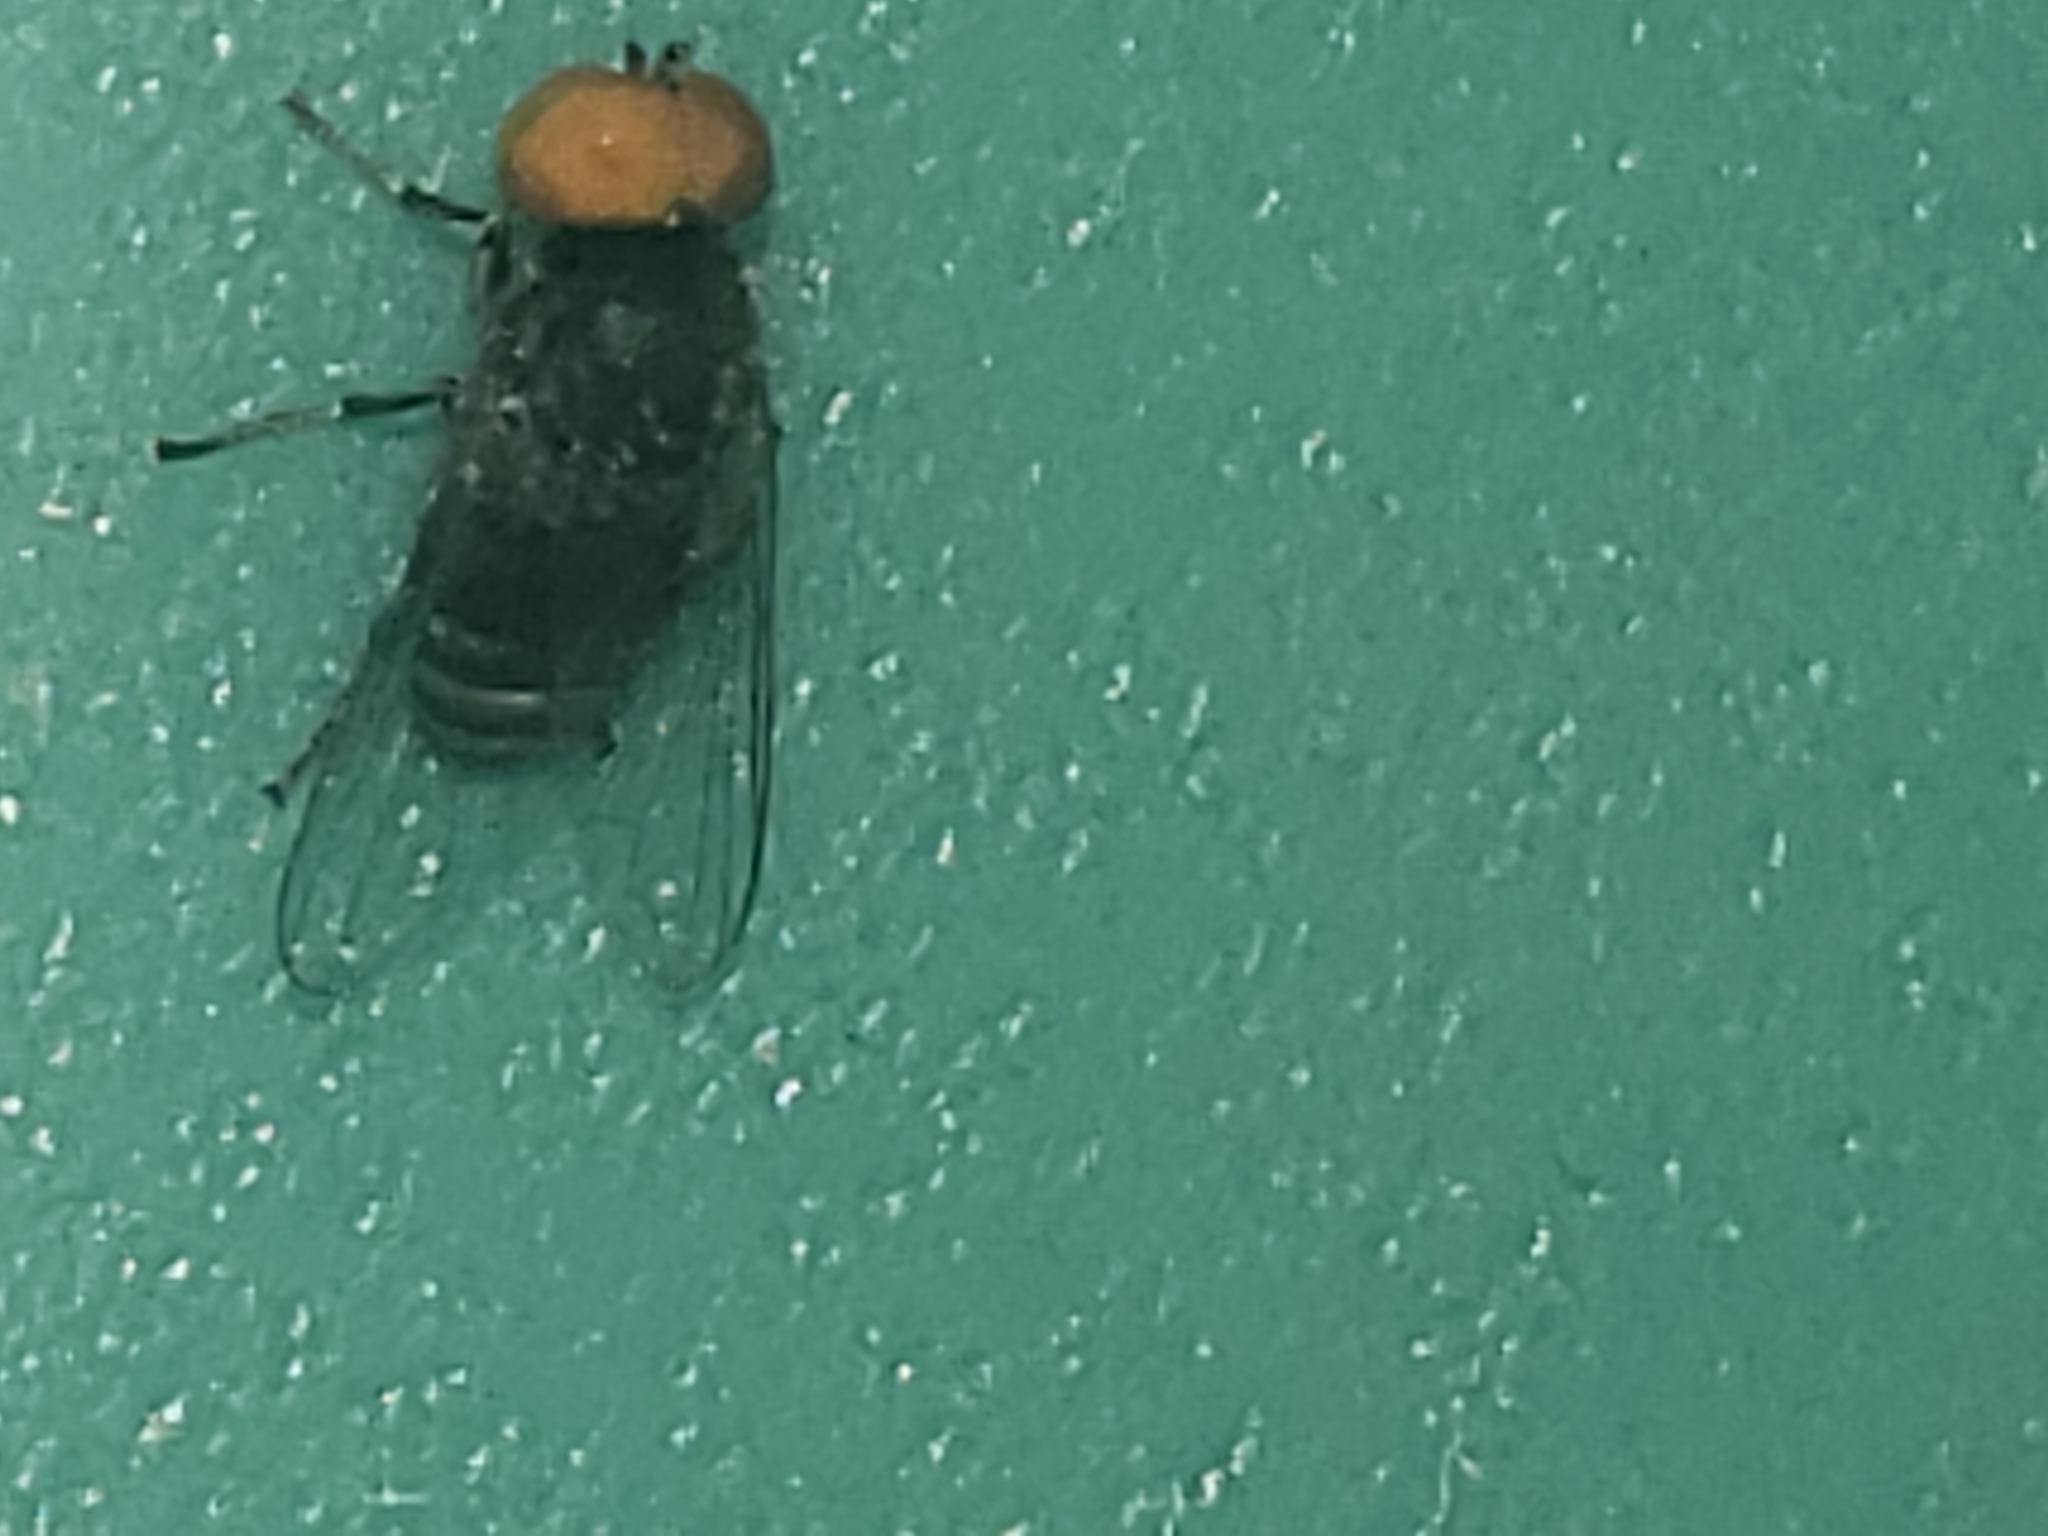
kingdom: Animalia
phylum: Arthropoda
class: Insecta
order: Diptera
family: Platypezidae
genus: Platypeza
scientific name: Platypeza anthrax
